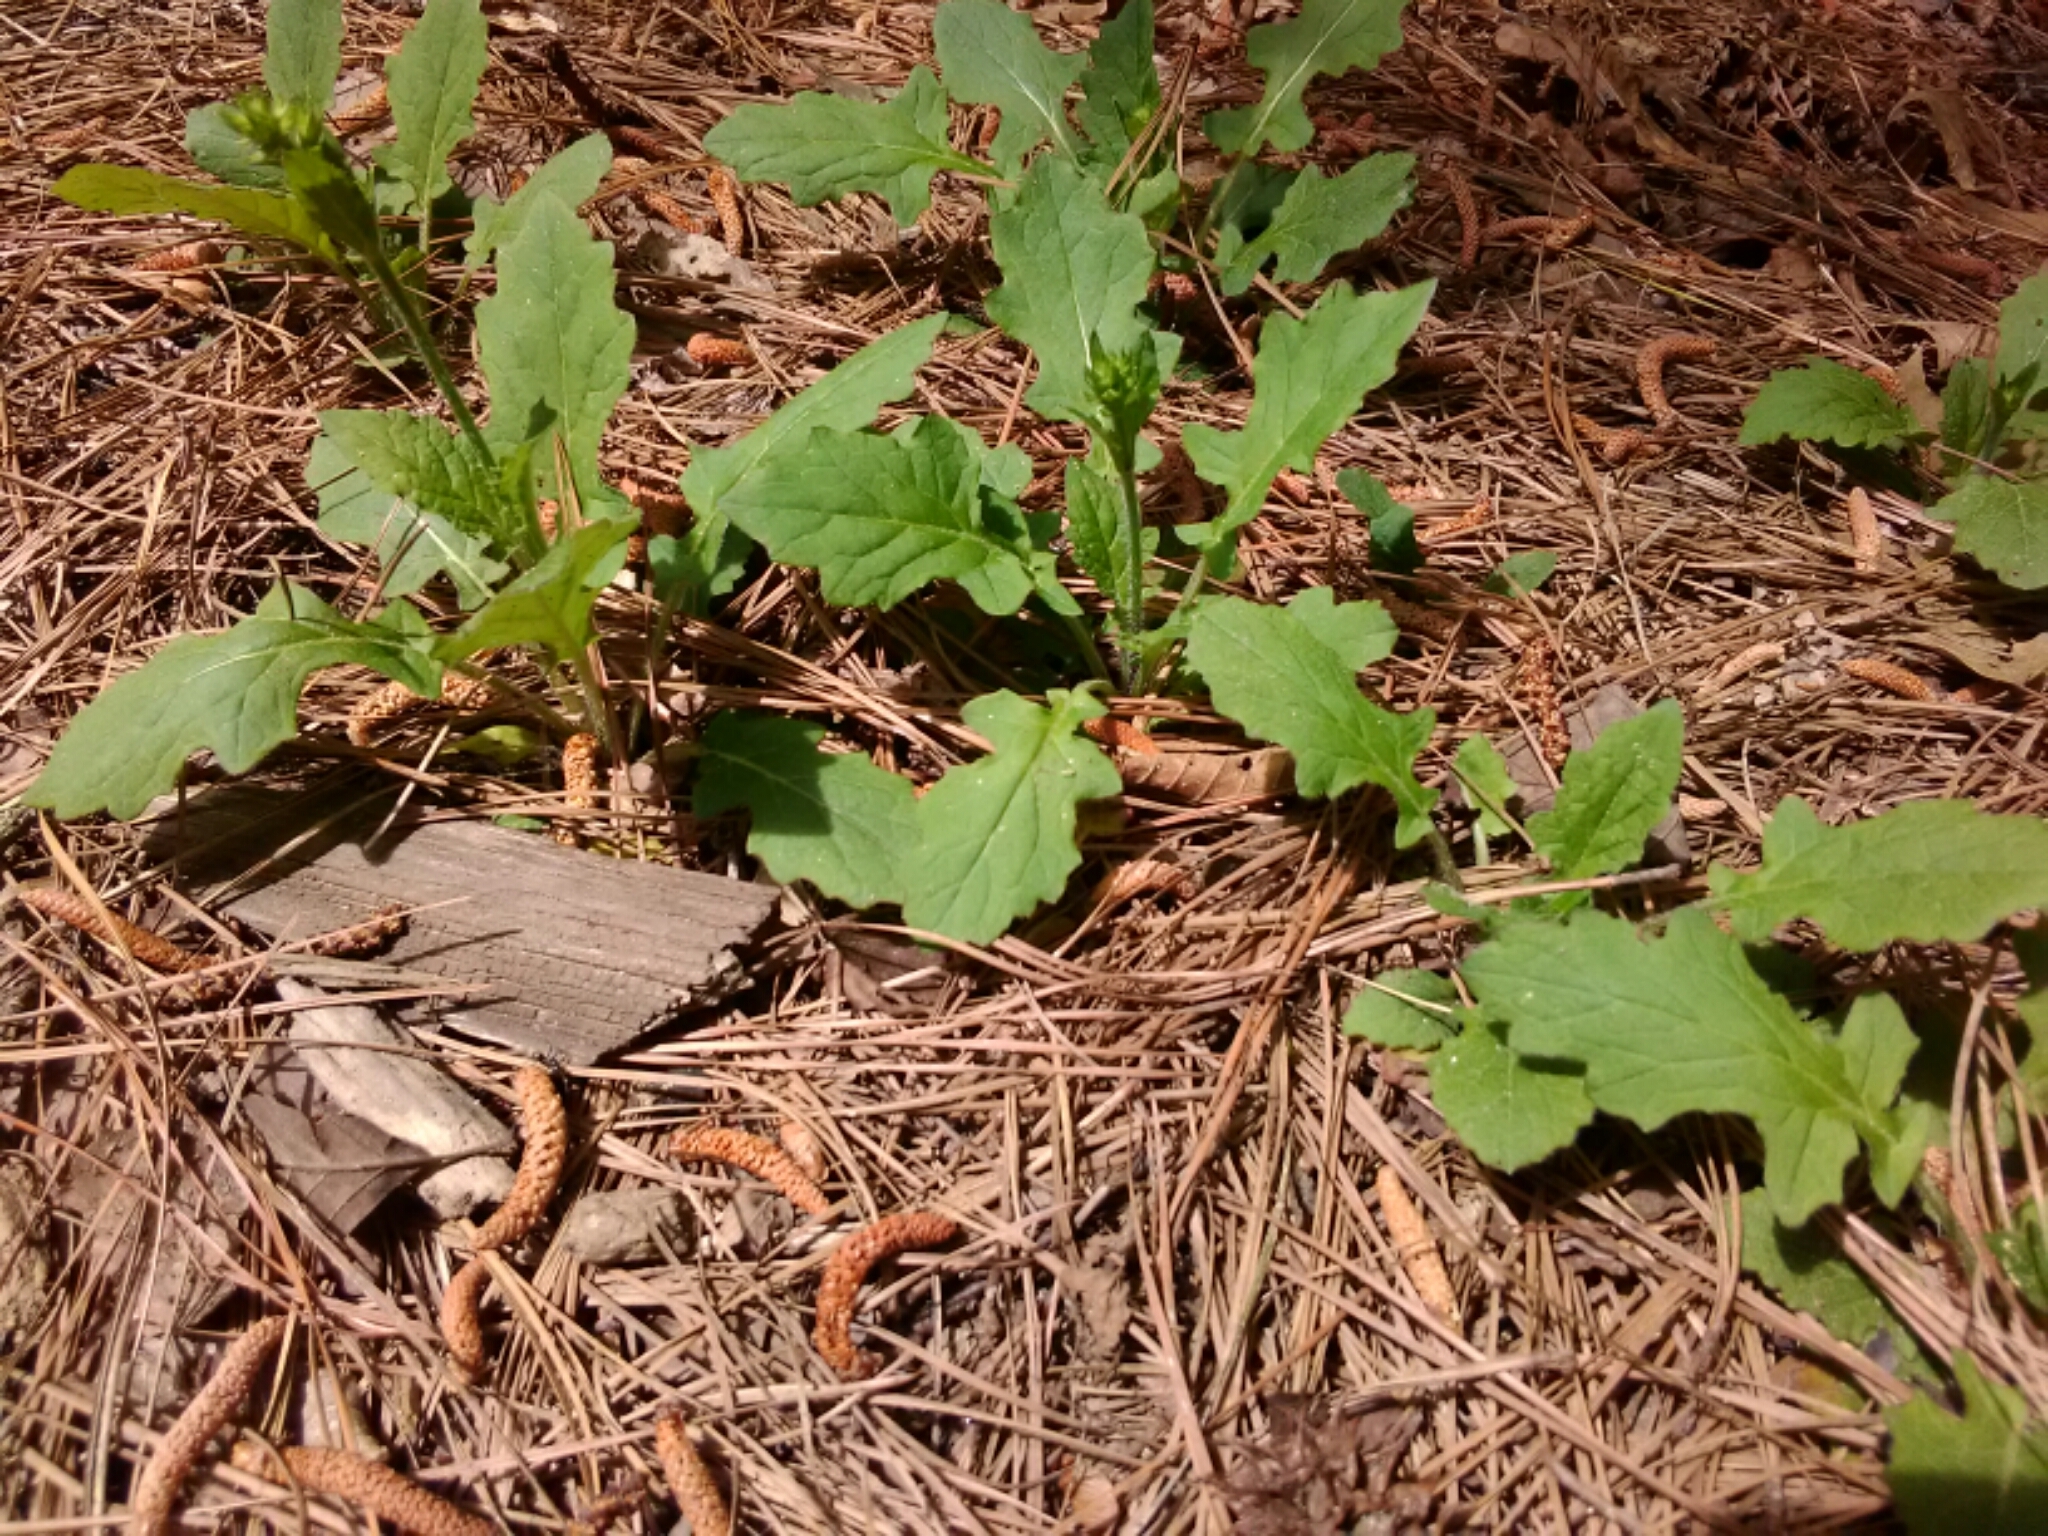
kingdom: Plantae
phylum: Tracheophyta
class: Magnoliopsida
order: Lamiales
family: Lamiaceae
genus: Salvia
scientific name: Salvia lyrata
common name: Cancerweed
